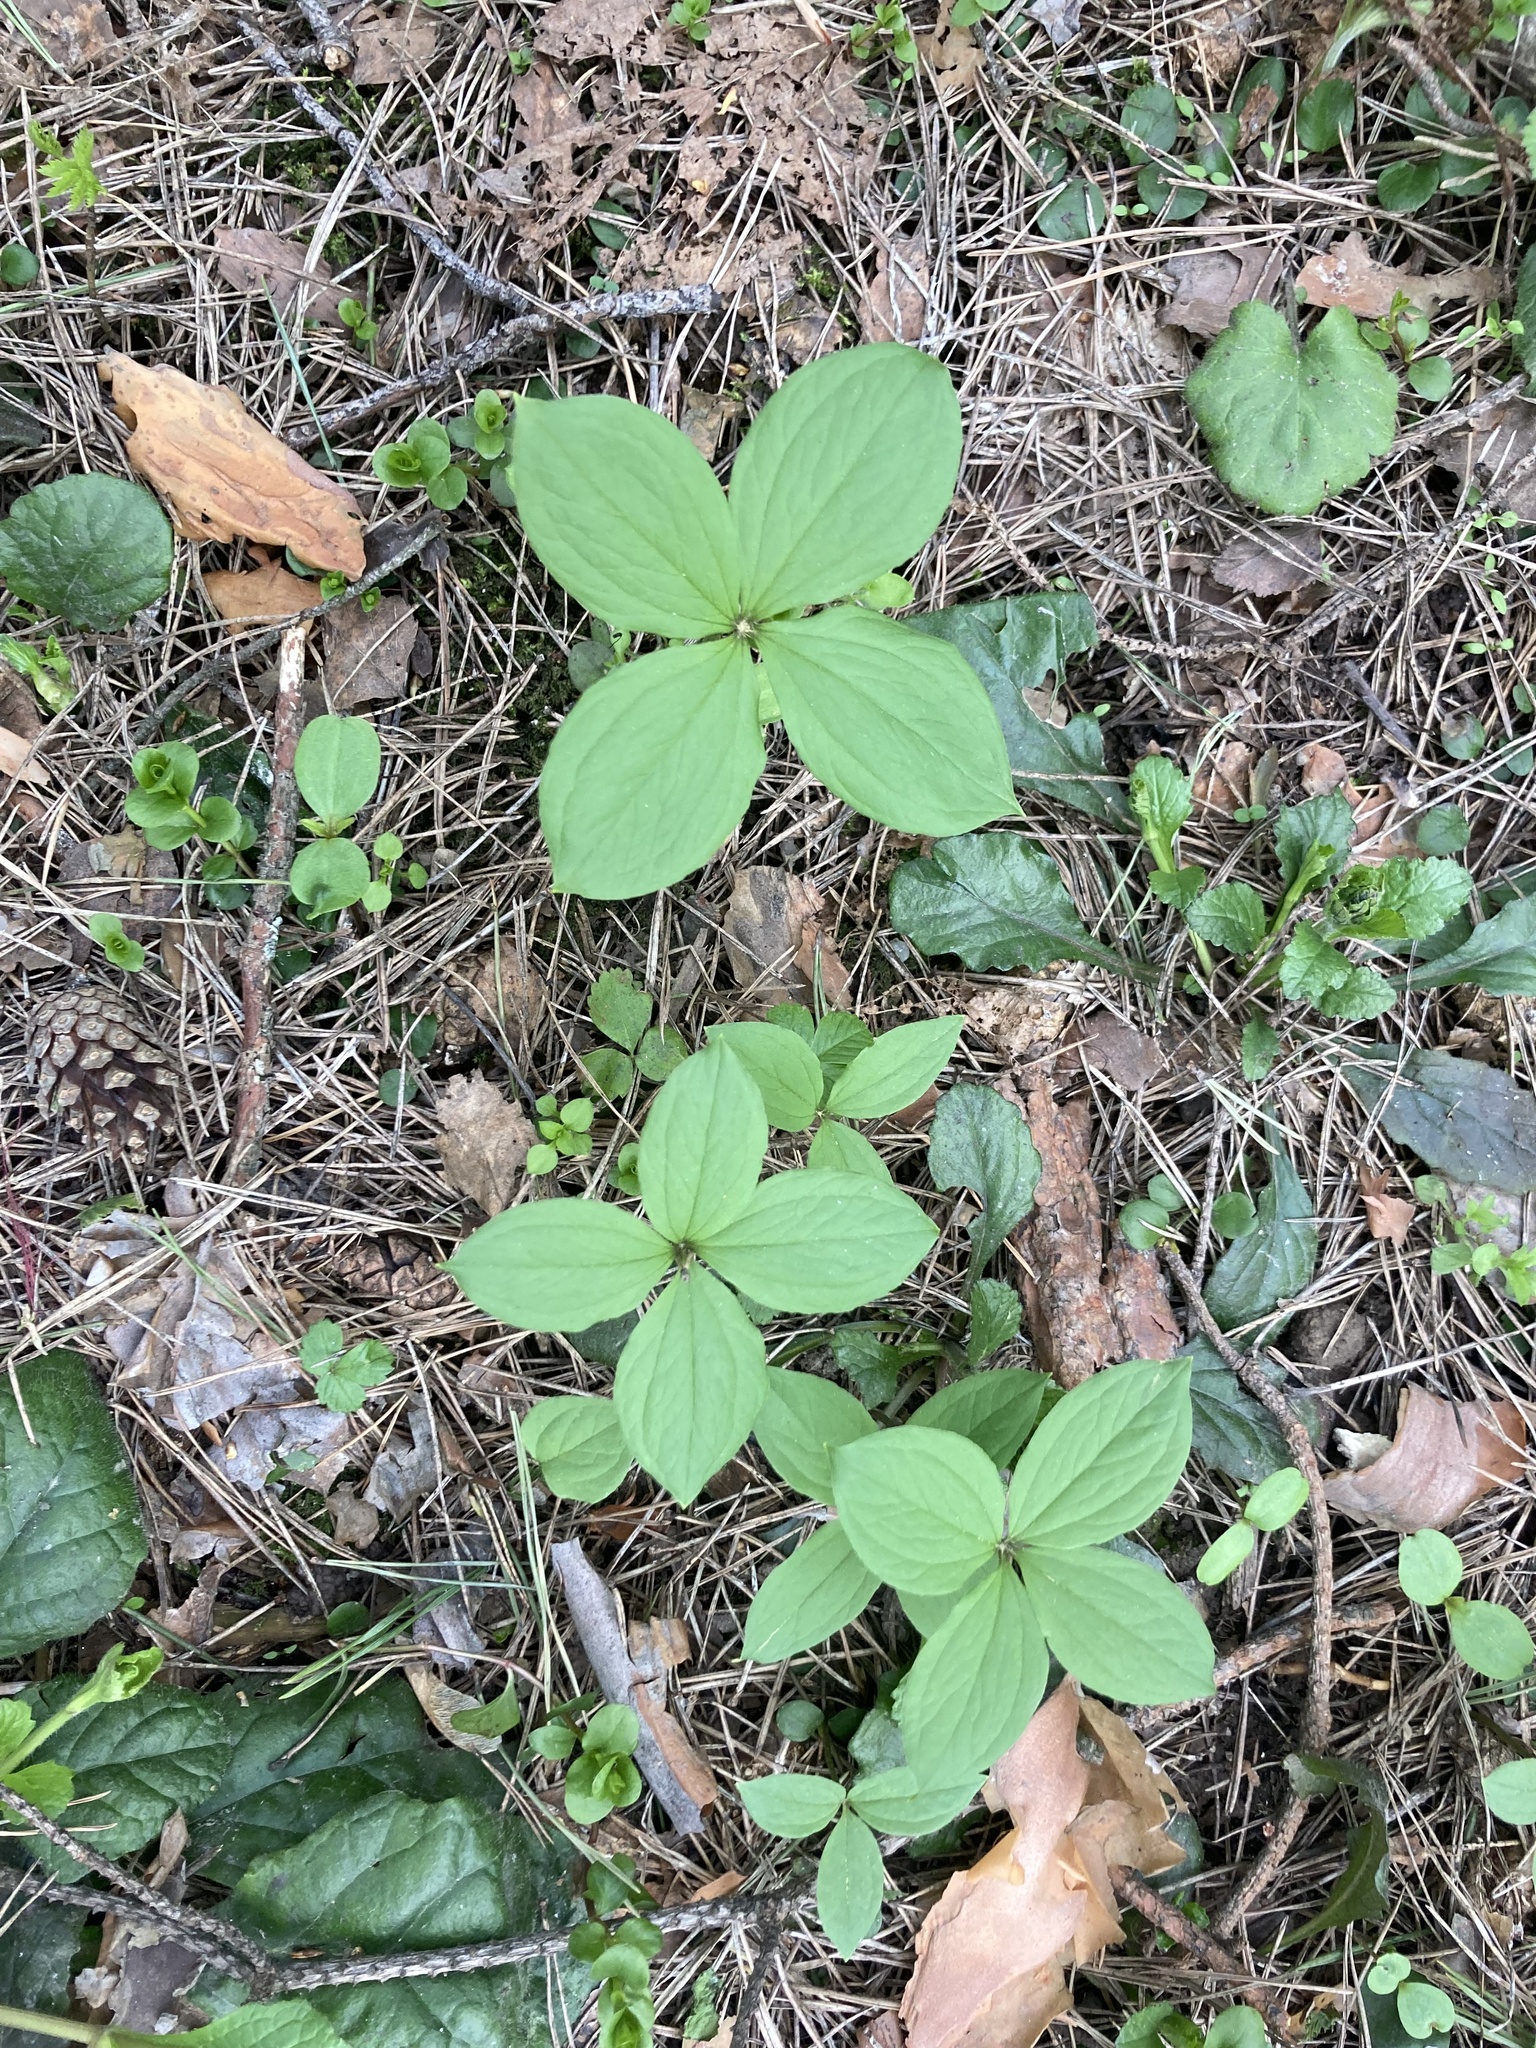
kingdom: Plantae
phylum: Tracheophyta
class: Liliopsida
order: Liliales
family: Melanthiaceae
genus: Paris
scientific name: Paris quadrifolia
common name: Herb-paris
